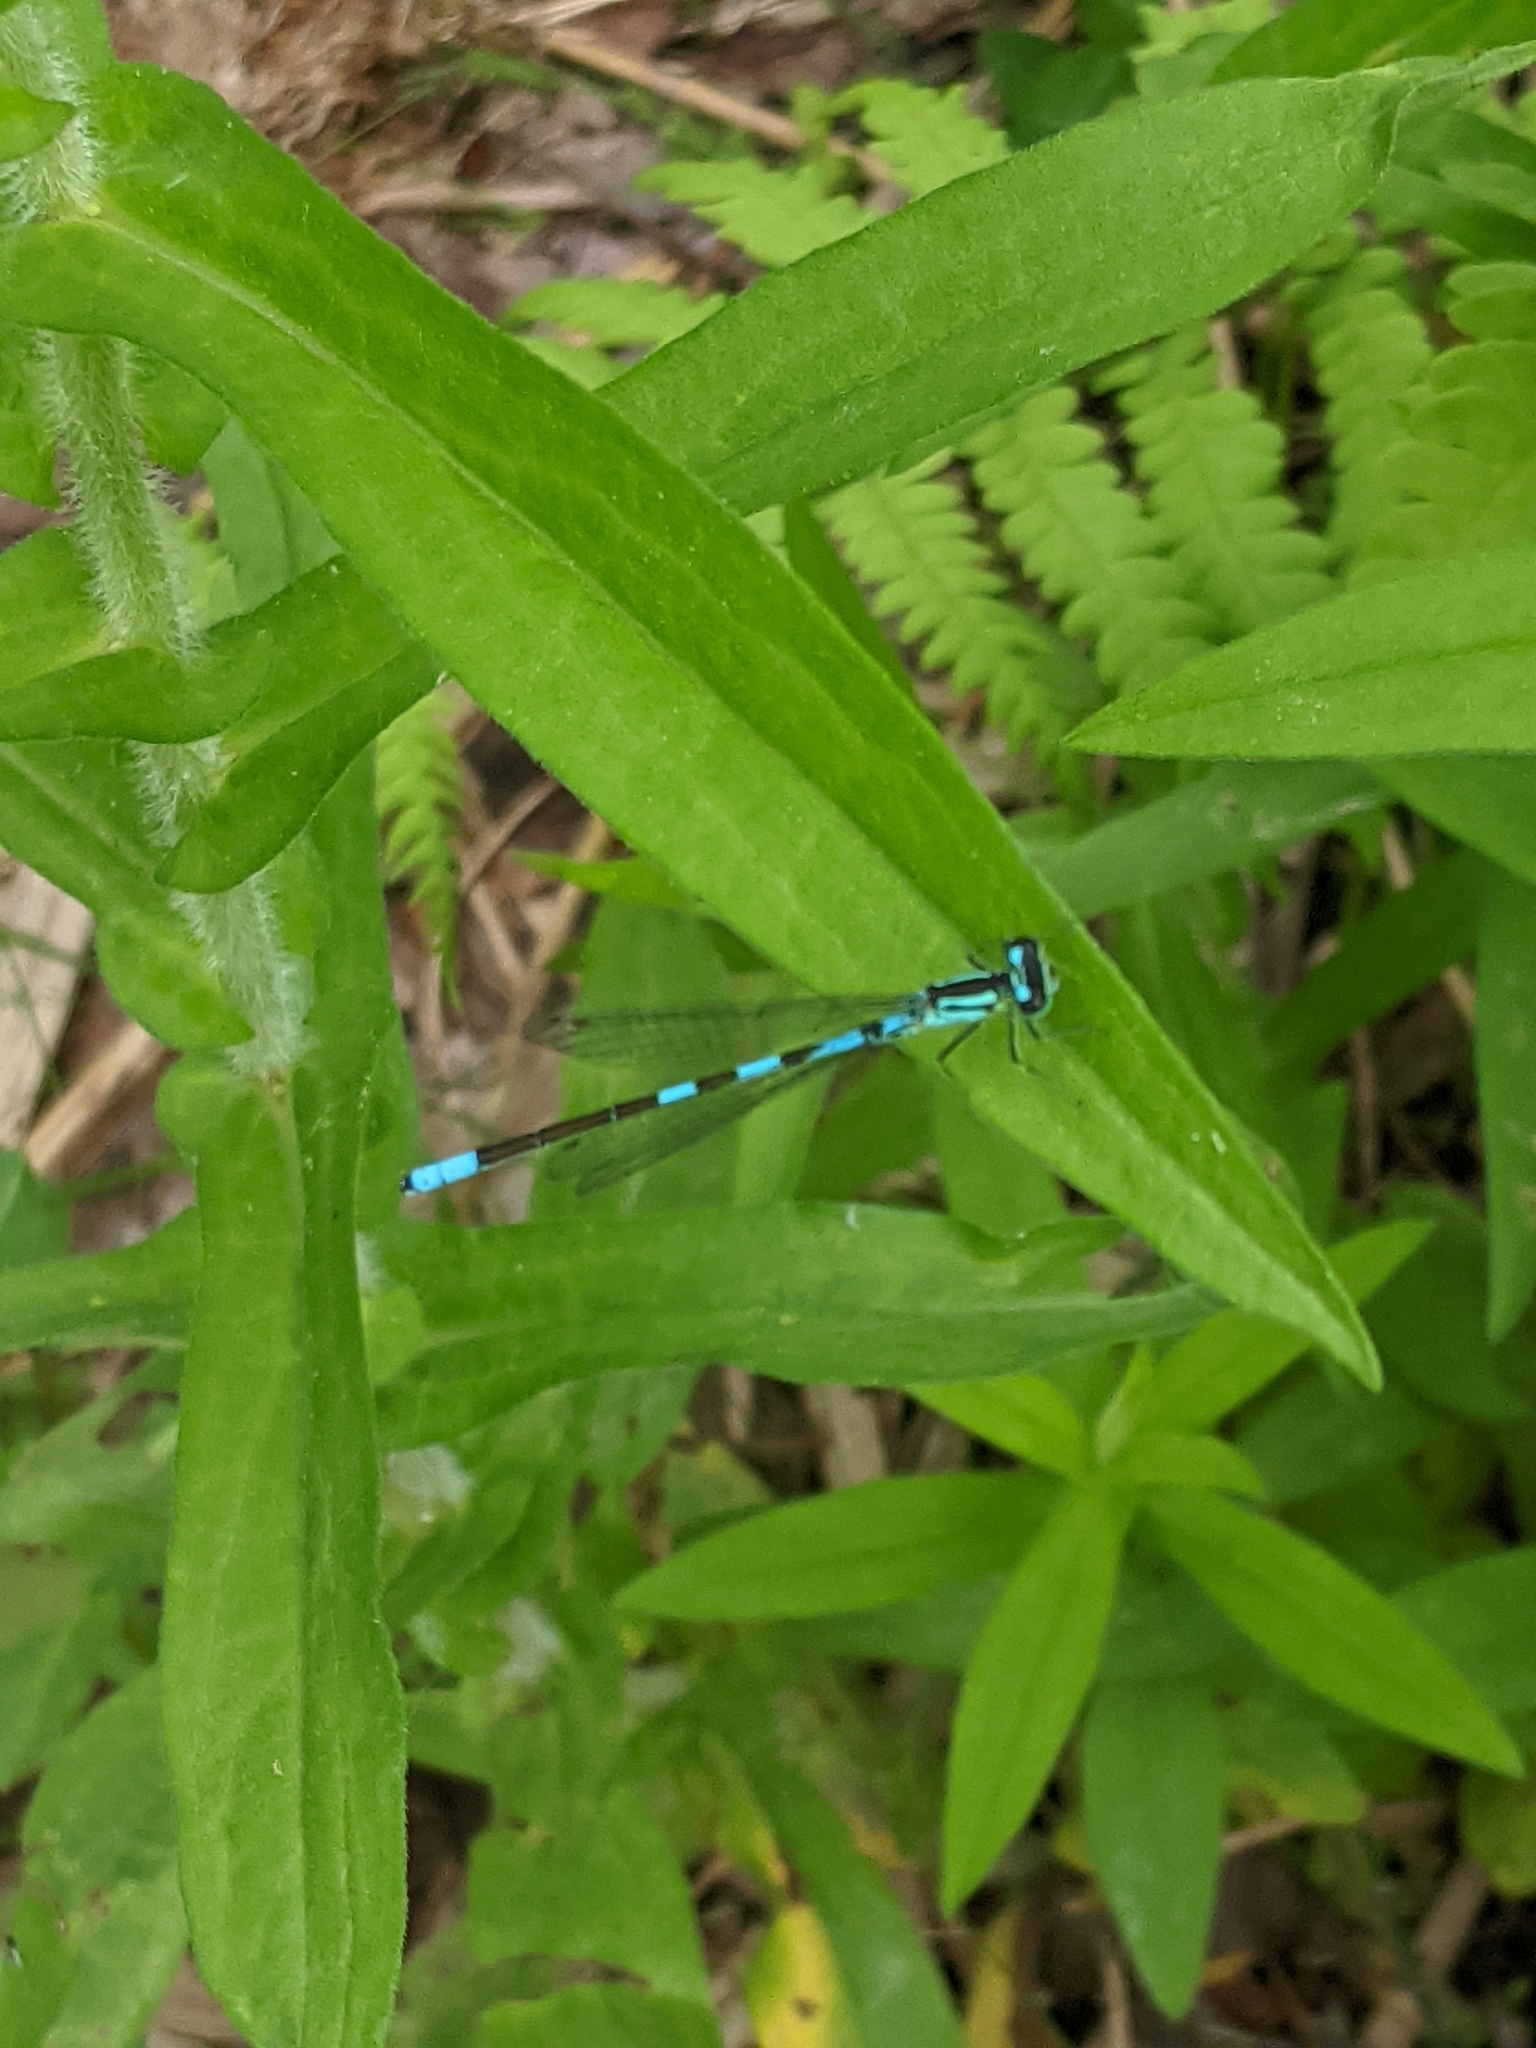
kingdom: Animalia
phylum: Arthropoda
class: Insecta
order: Odonata
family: Coenagrionidae
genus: Coenagrion
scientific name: Coenagrion resolutum
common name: Taiga bluet
